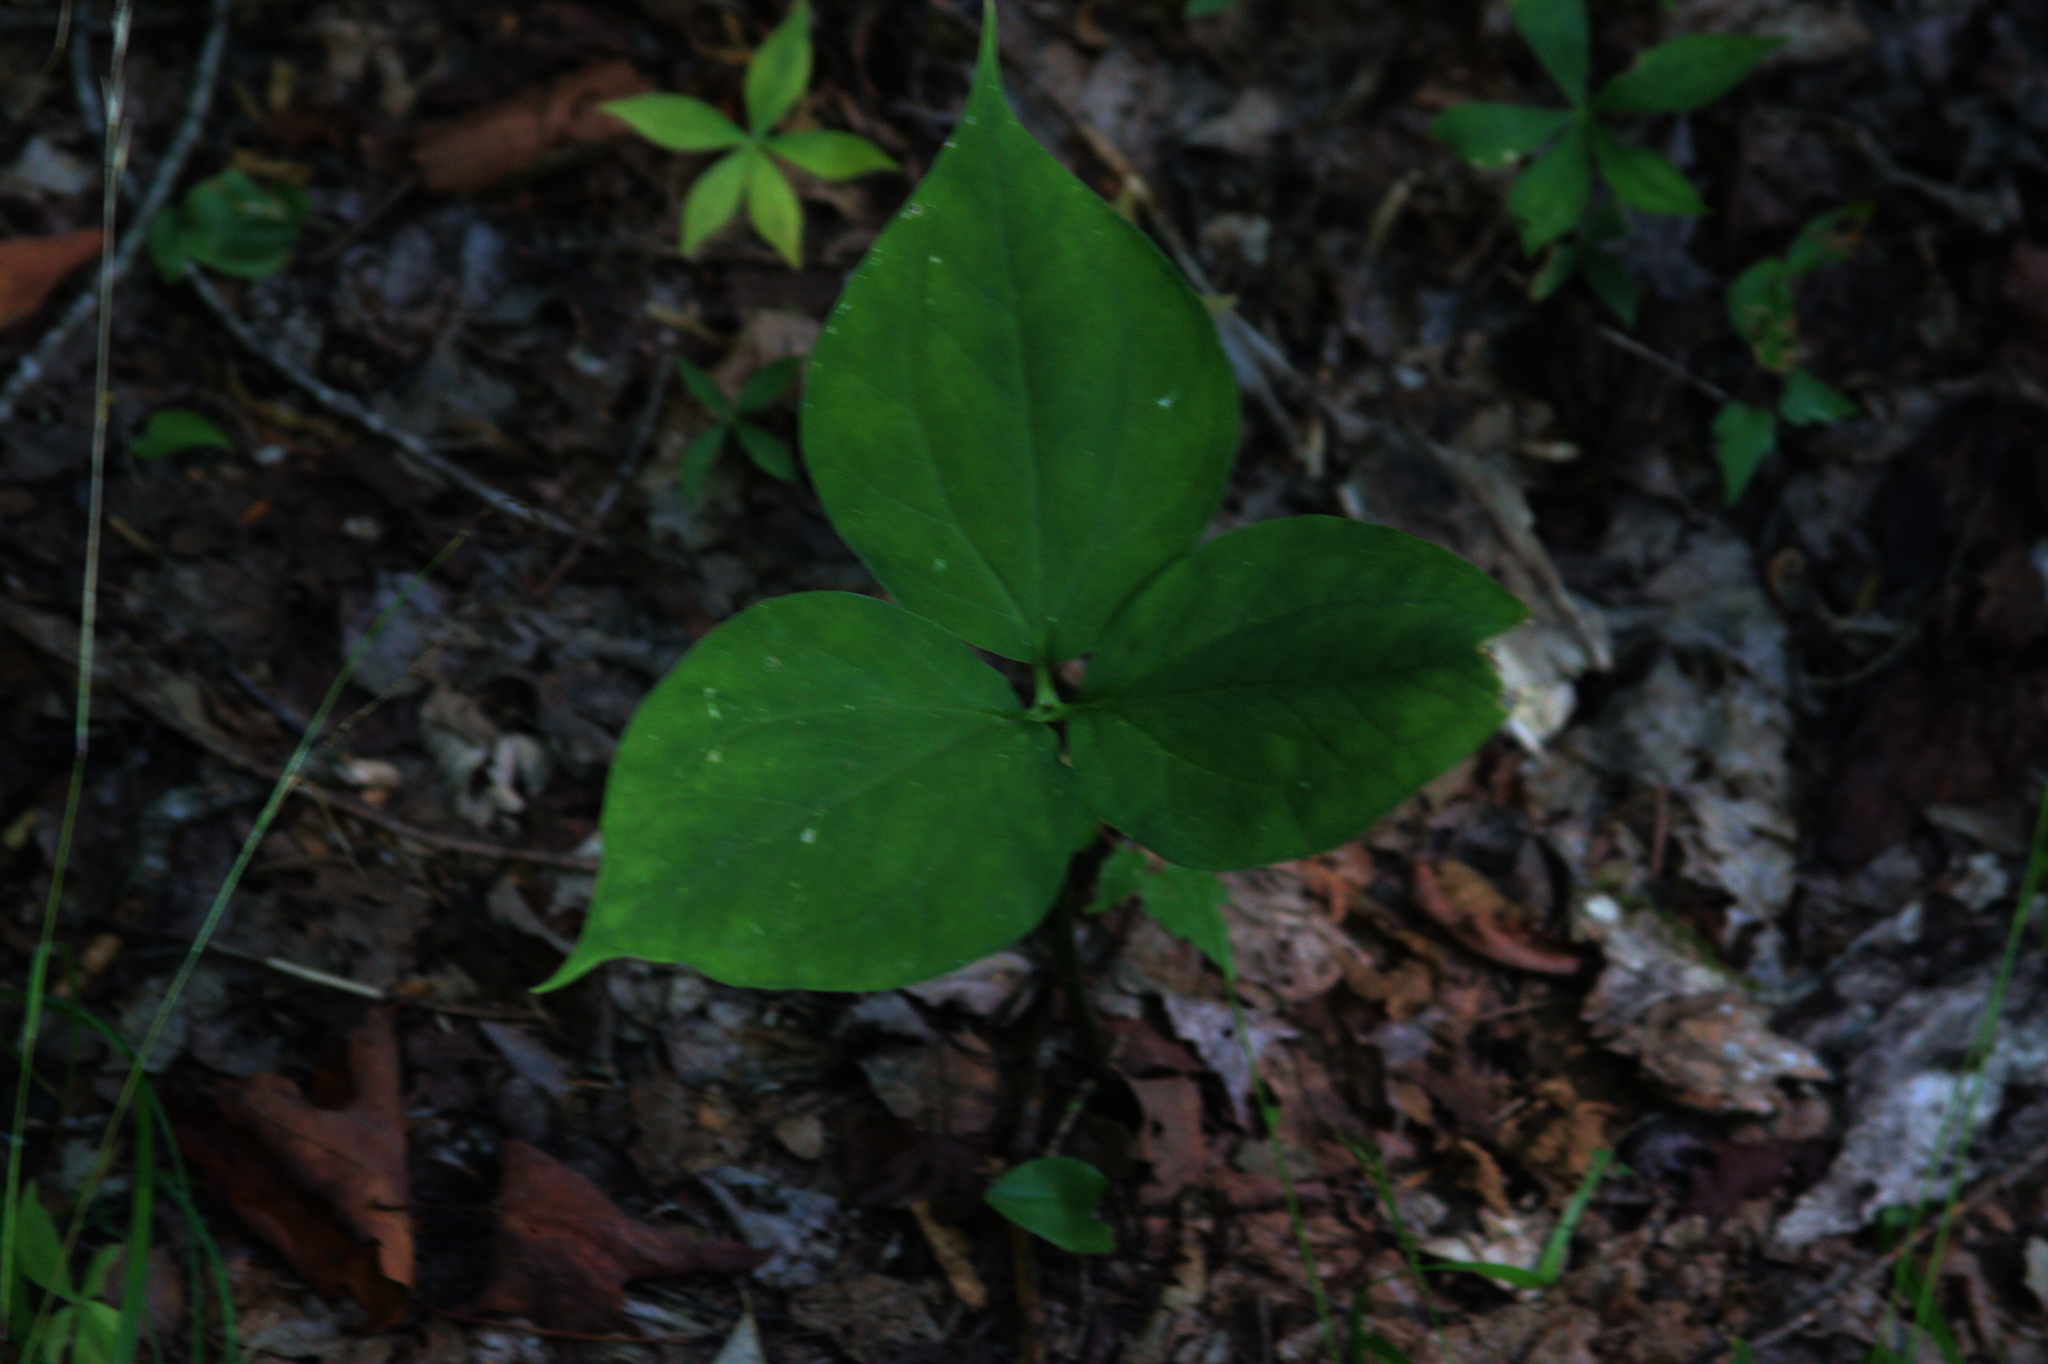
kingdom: Plantae
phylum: Tracheophyta
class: Liliopsida
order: Liliales
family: Melanthiaceae
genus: Trillium
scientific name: Trillium undulatum
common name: Paint trillium
